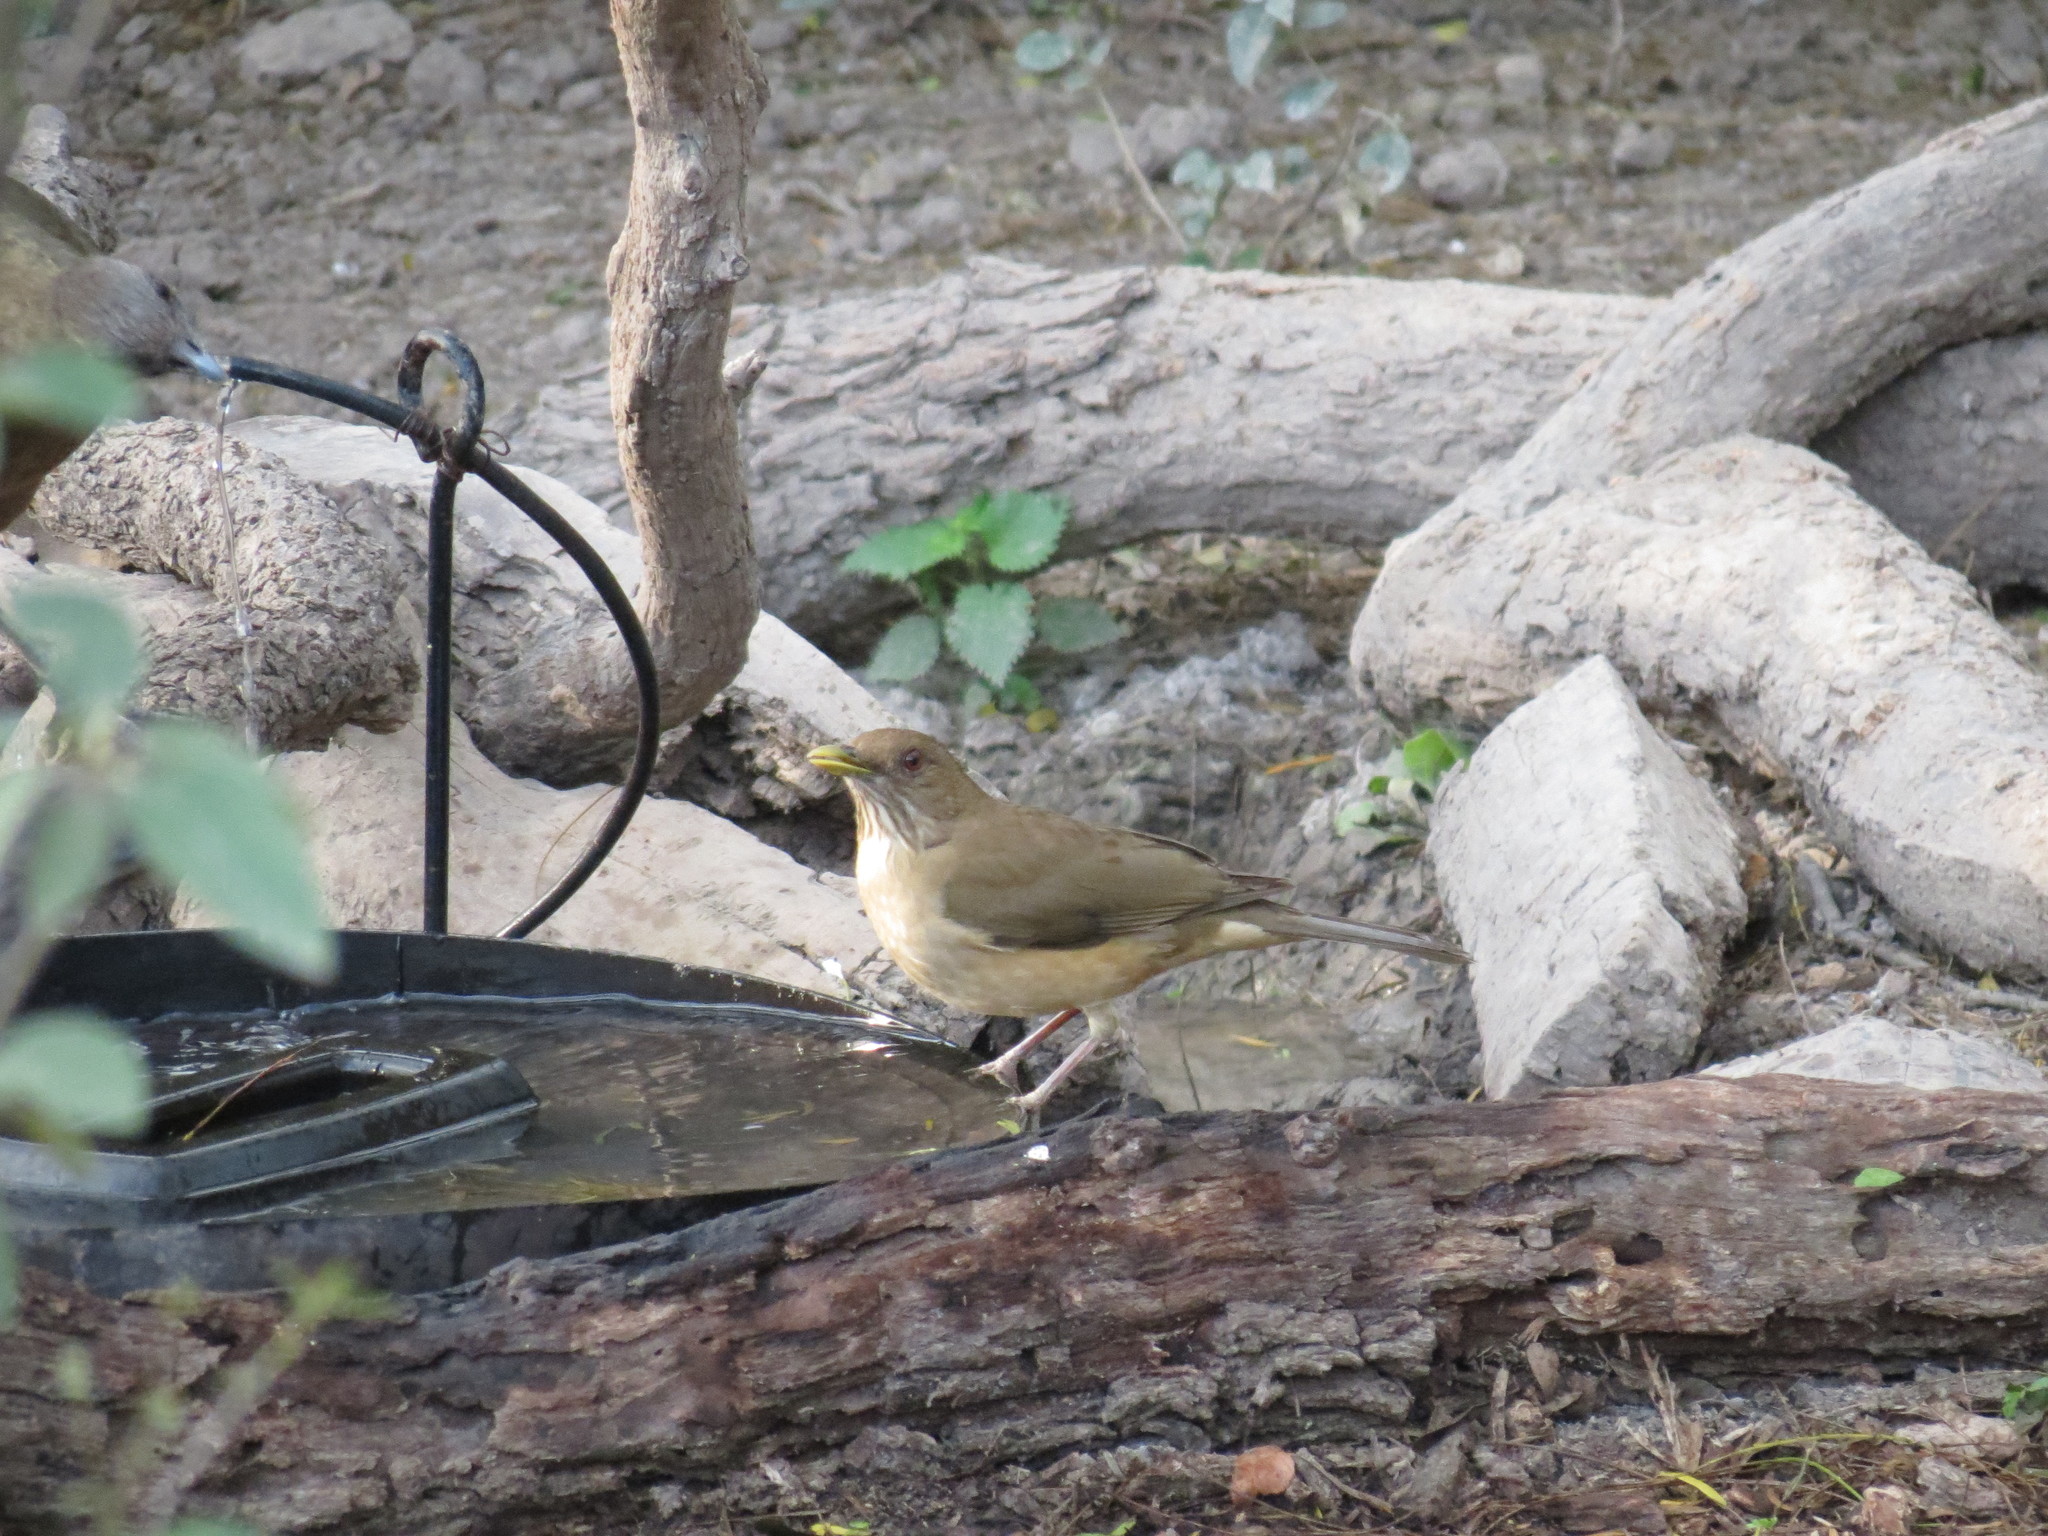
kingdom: Animalia
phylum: Chordata
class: Aves
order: Passeriformes
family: Turdidae
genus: Turdus
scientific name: Turdus grayi
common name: Clay-colored thrush
